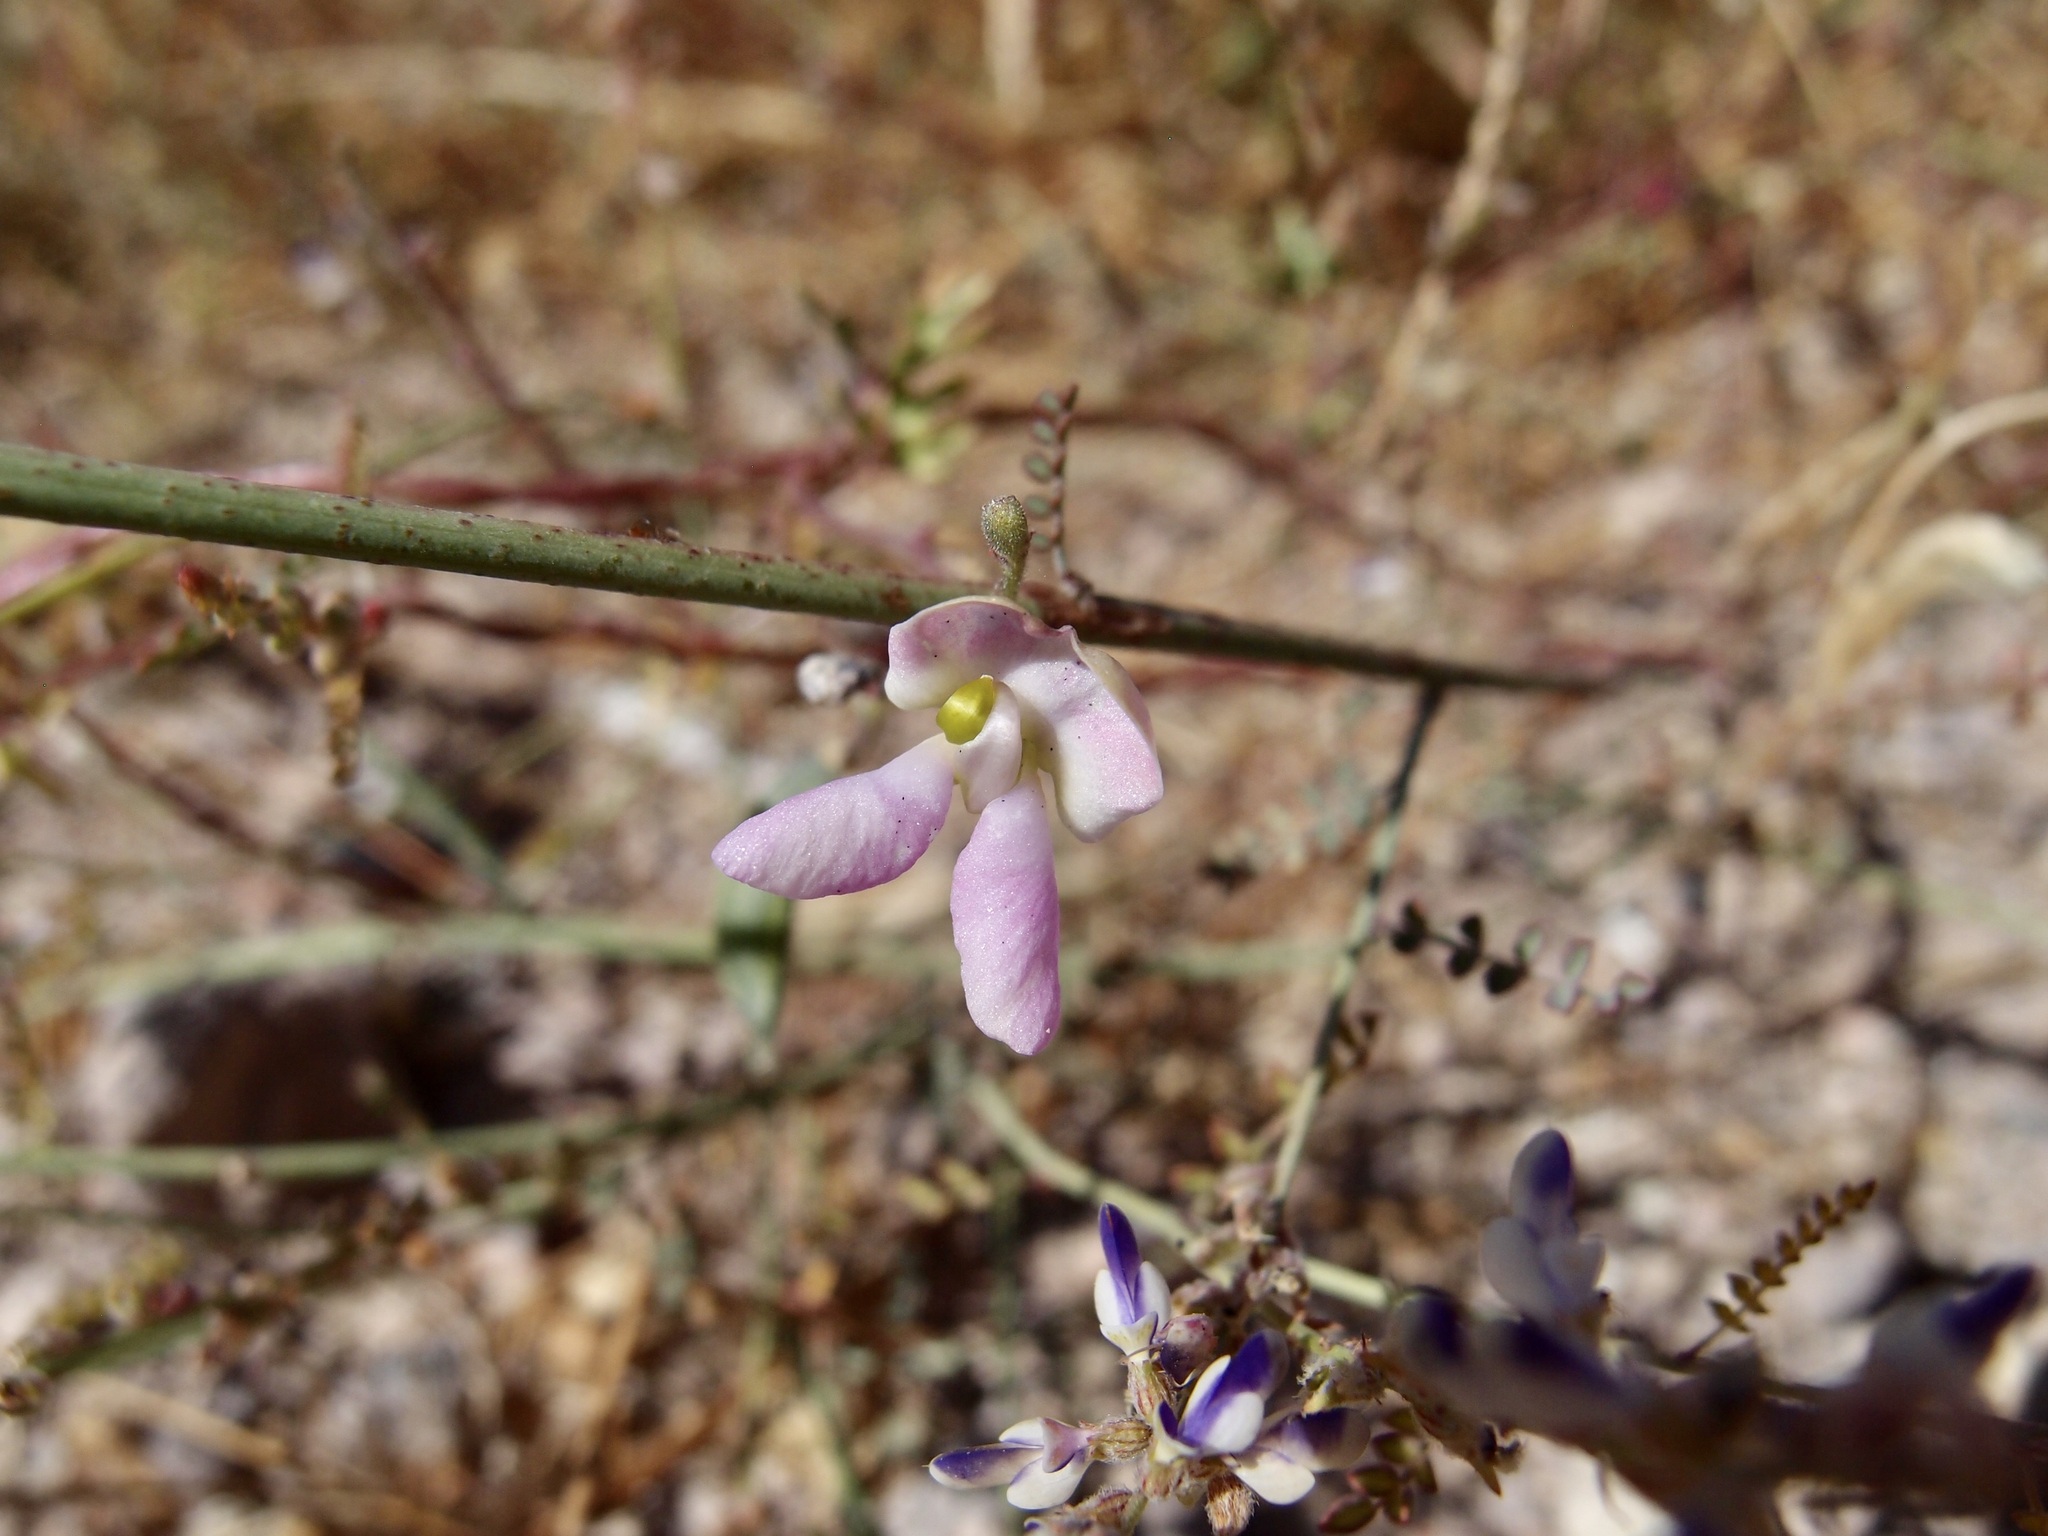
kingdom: Plantae
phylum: Tracheophyta
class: Magnoliopsida
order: Fabales
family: Fabaceae
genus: Phaseolus
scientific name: Phaseolus filiformis
